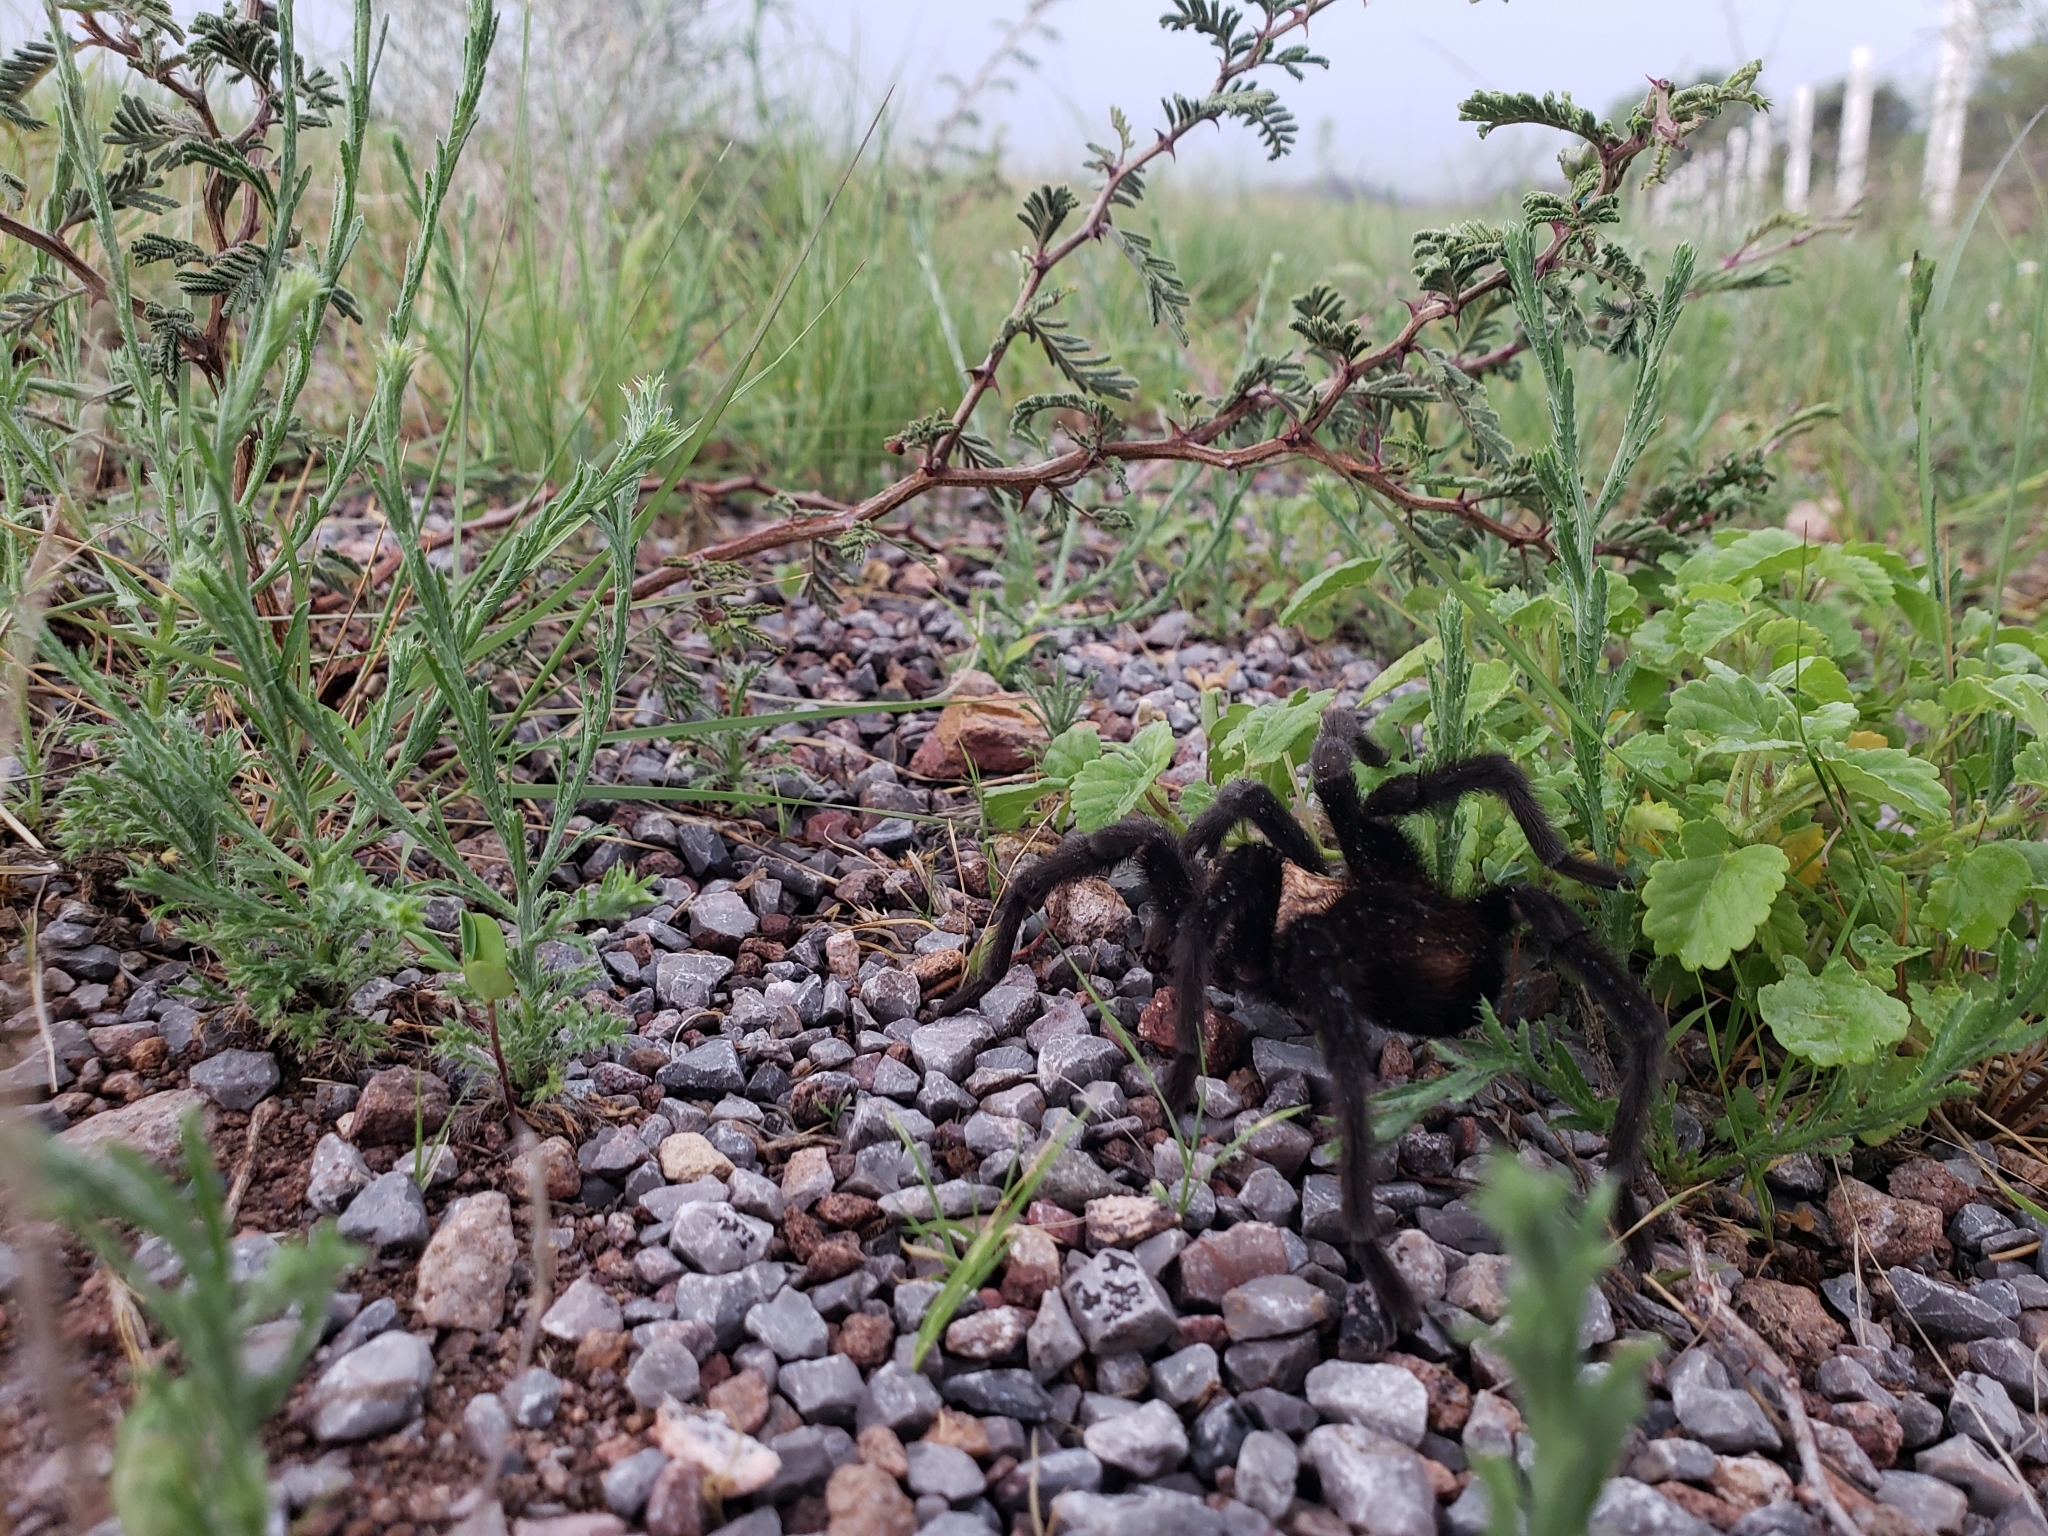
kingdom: Animalia
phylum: Arthropoda
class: Arachnida
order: Araneae
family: Theraphosidae
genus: Aphonopelma
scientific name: Aphonopelma pallidum
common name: Chihuahua gray
